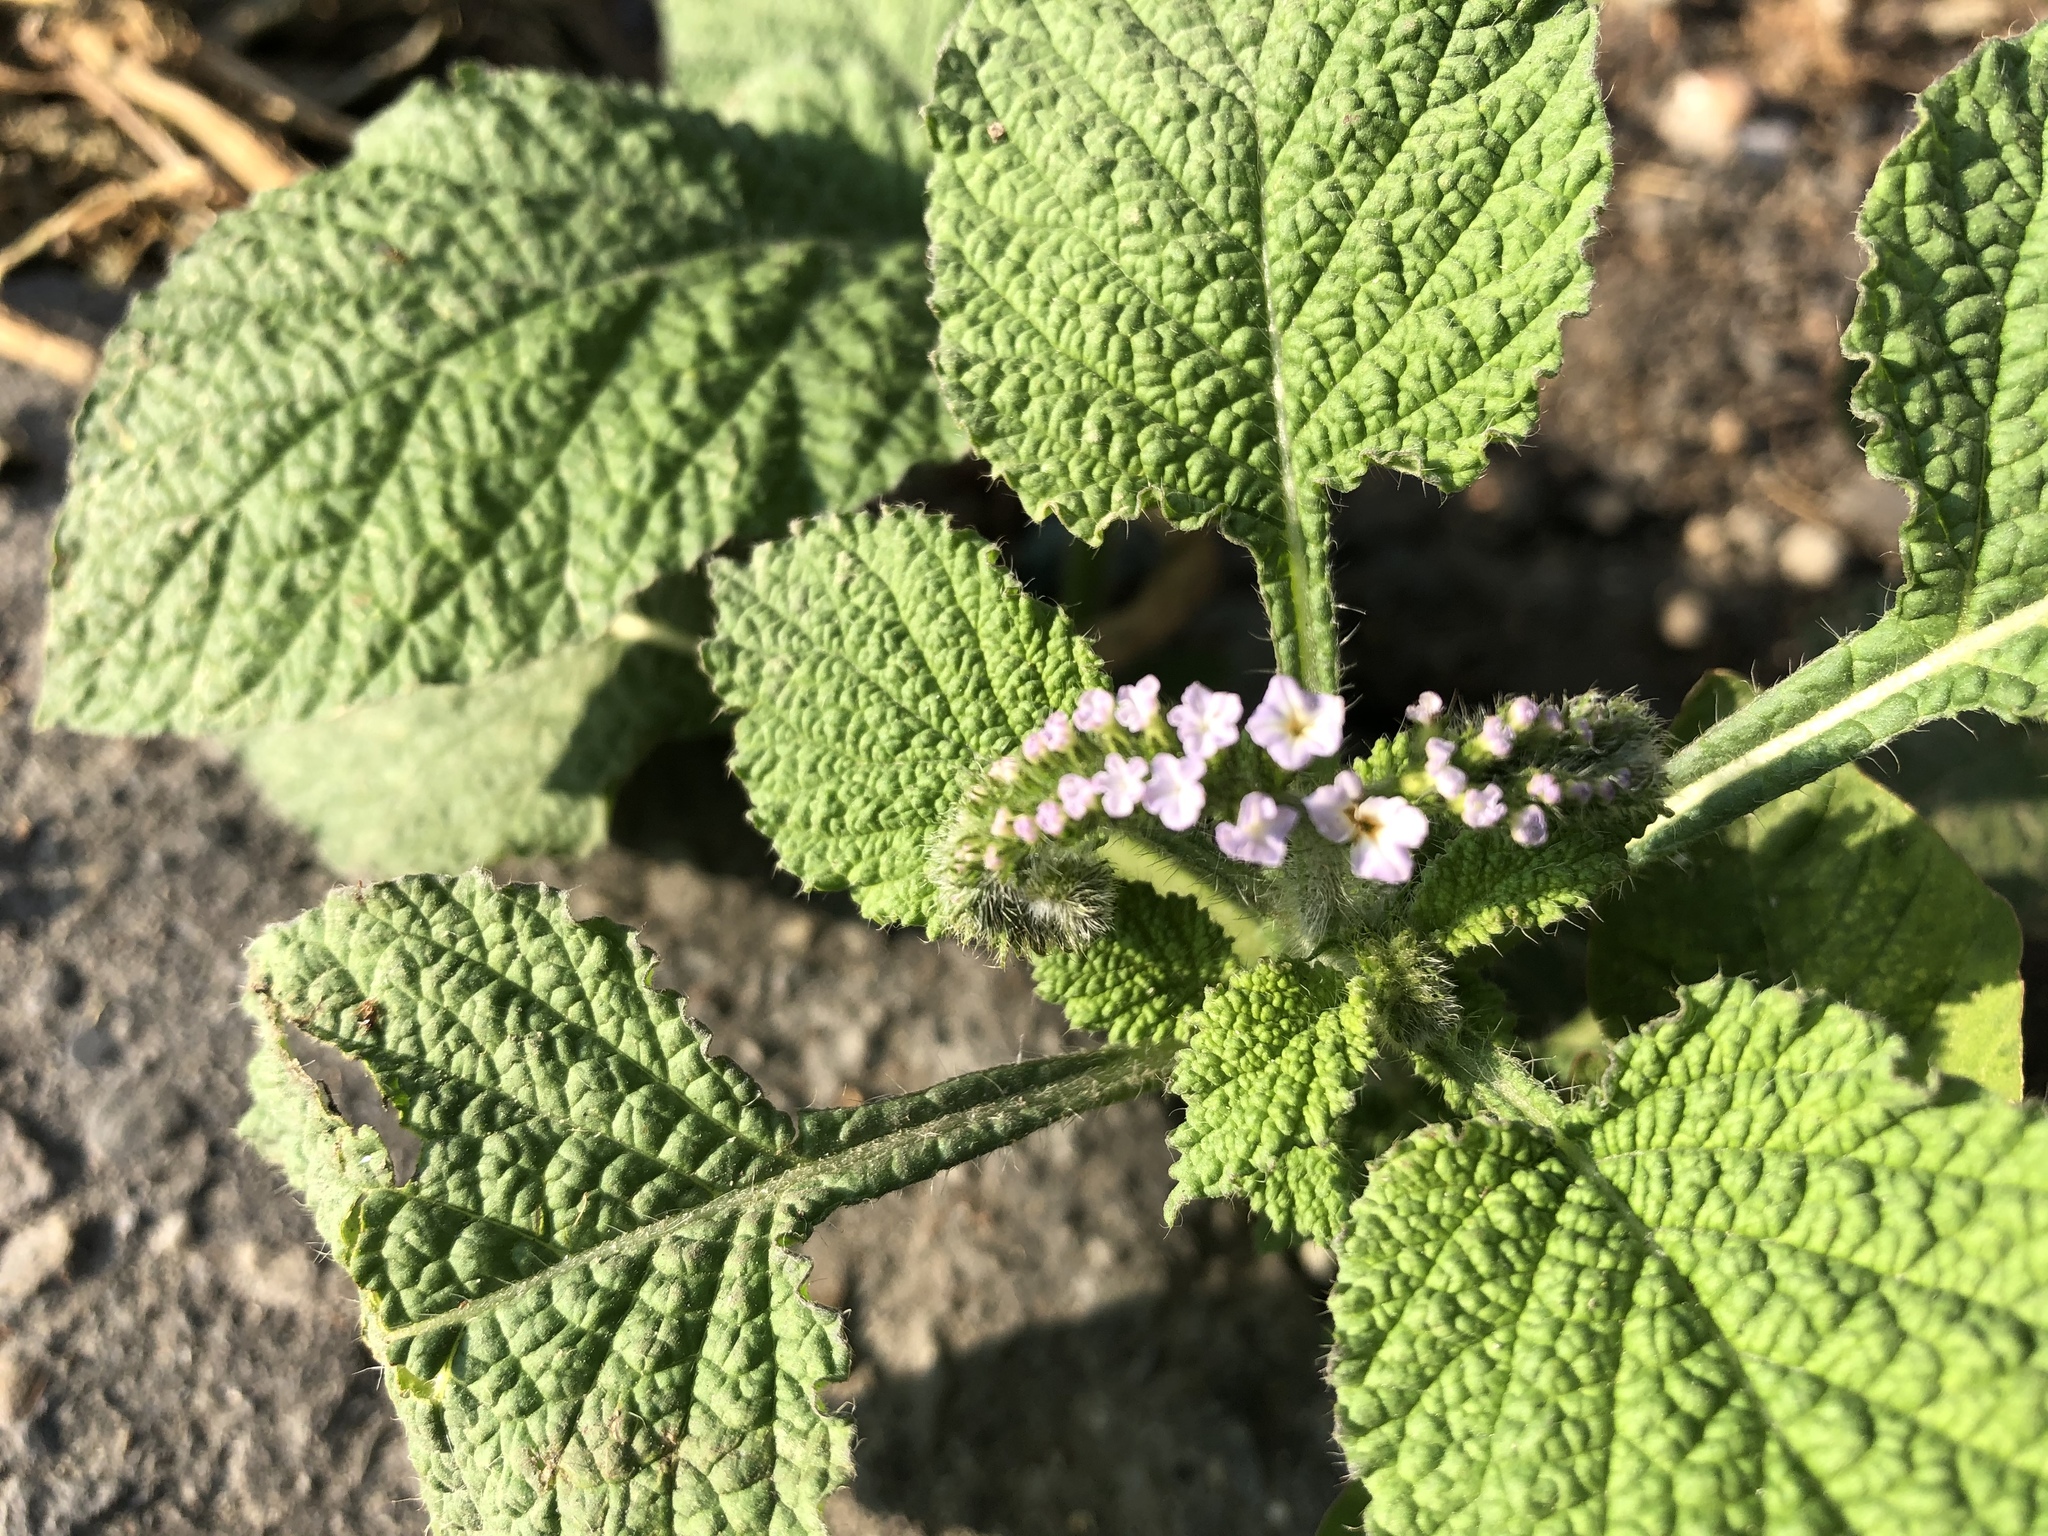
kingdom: Plantae
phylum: Tracheophyta
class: Magnoliopsida
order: Boraginales
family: Heliotropiaceae
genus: Heliotropium
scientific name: Heliotropium indicum
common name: Indian heliotrope
